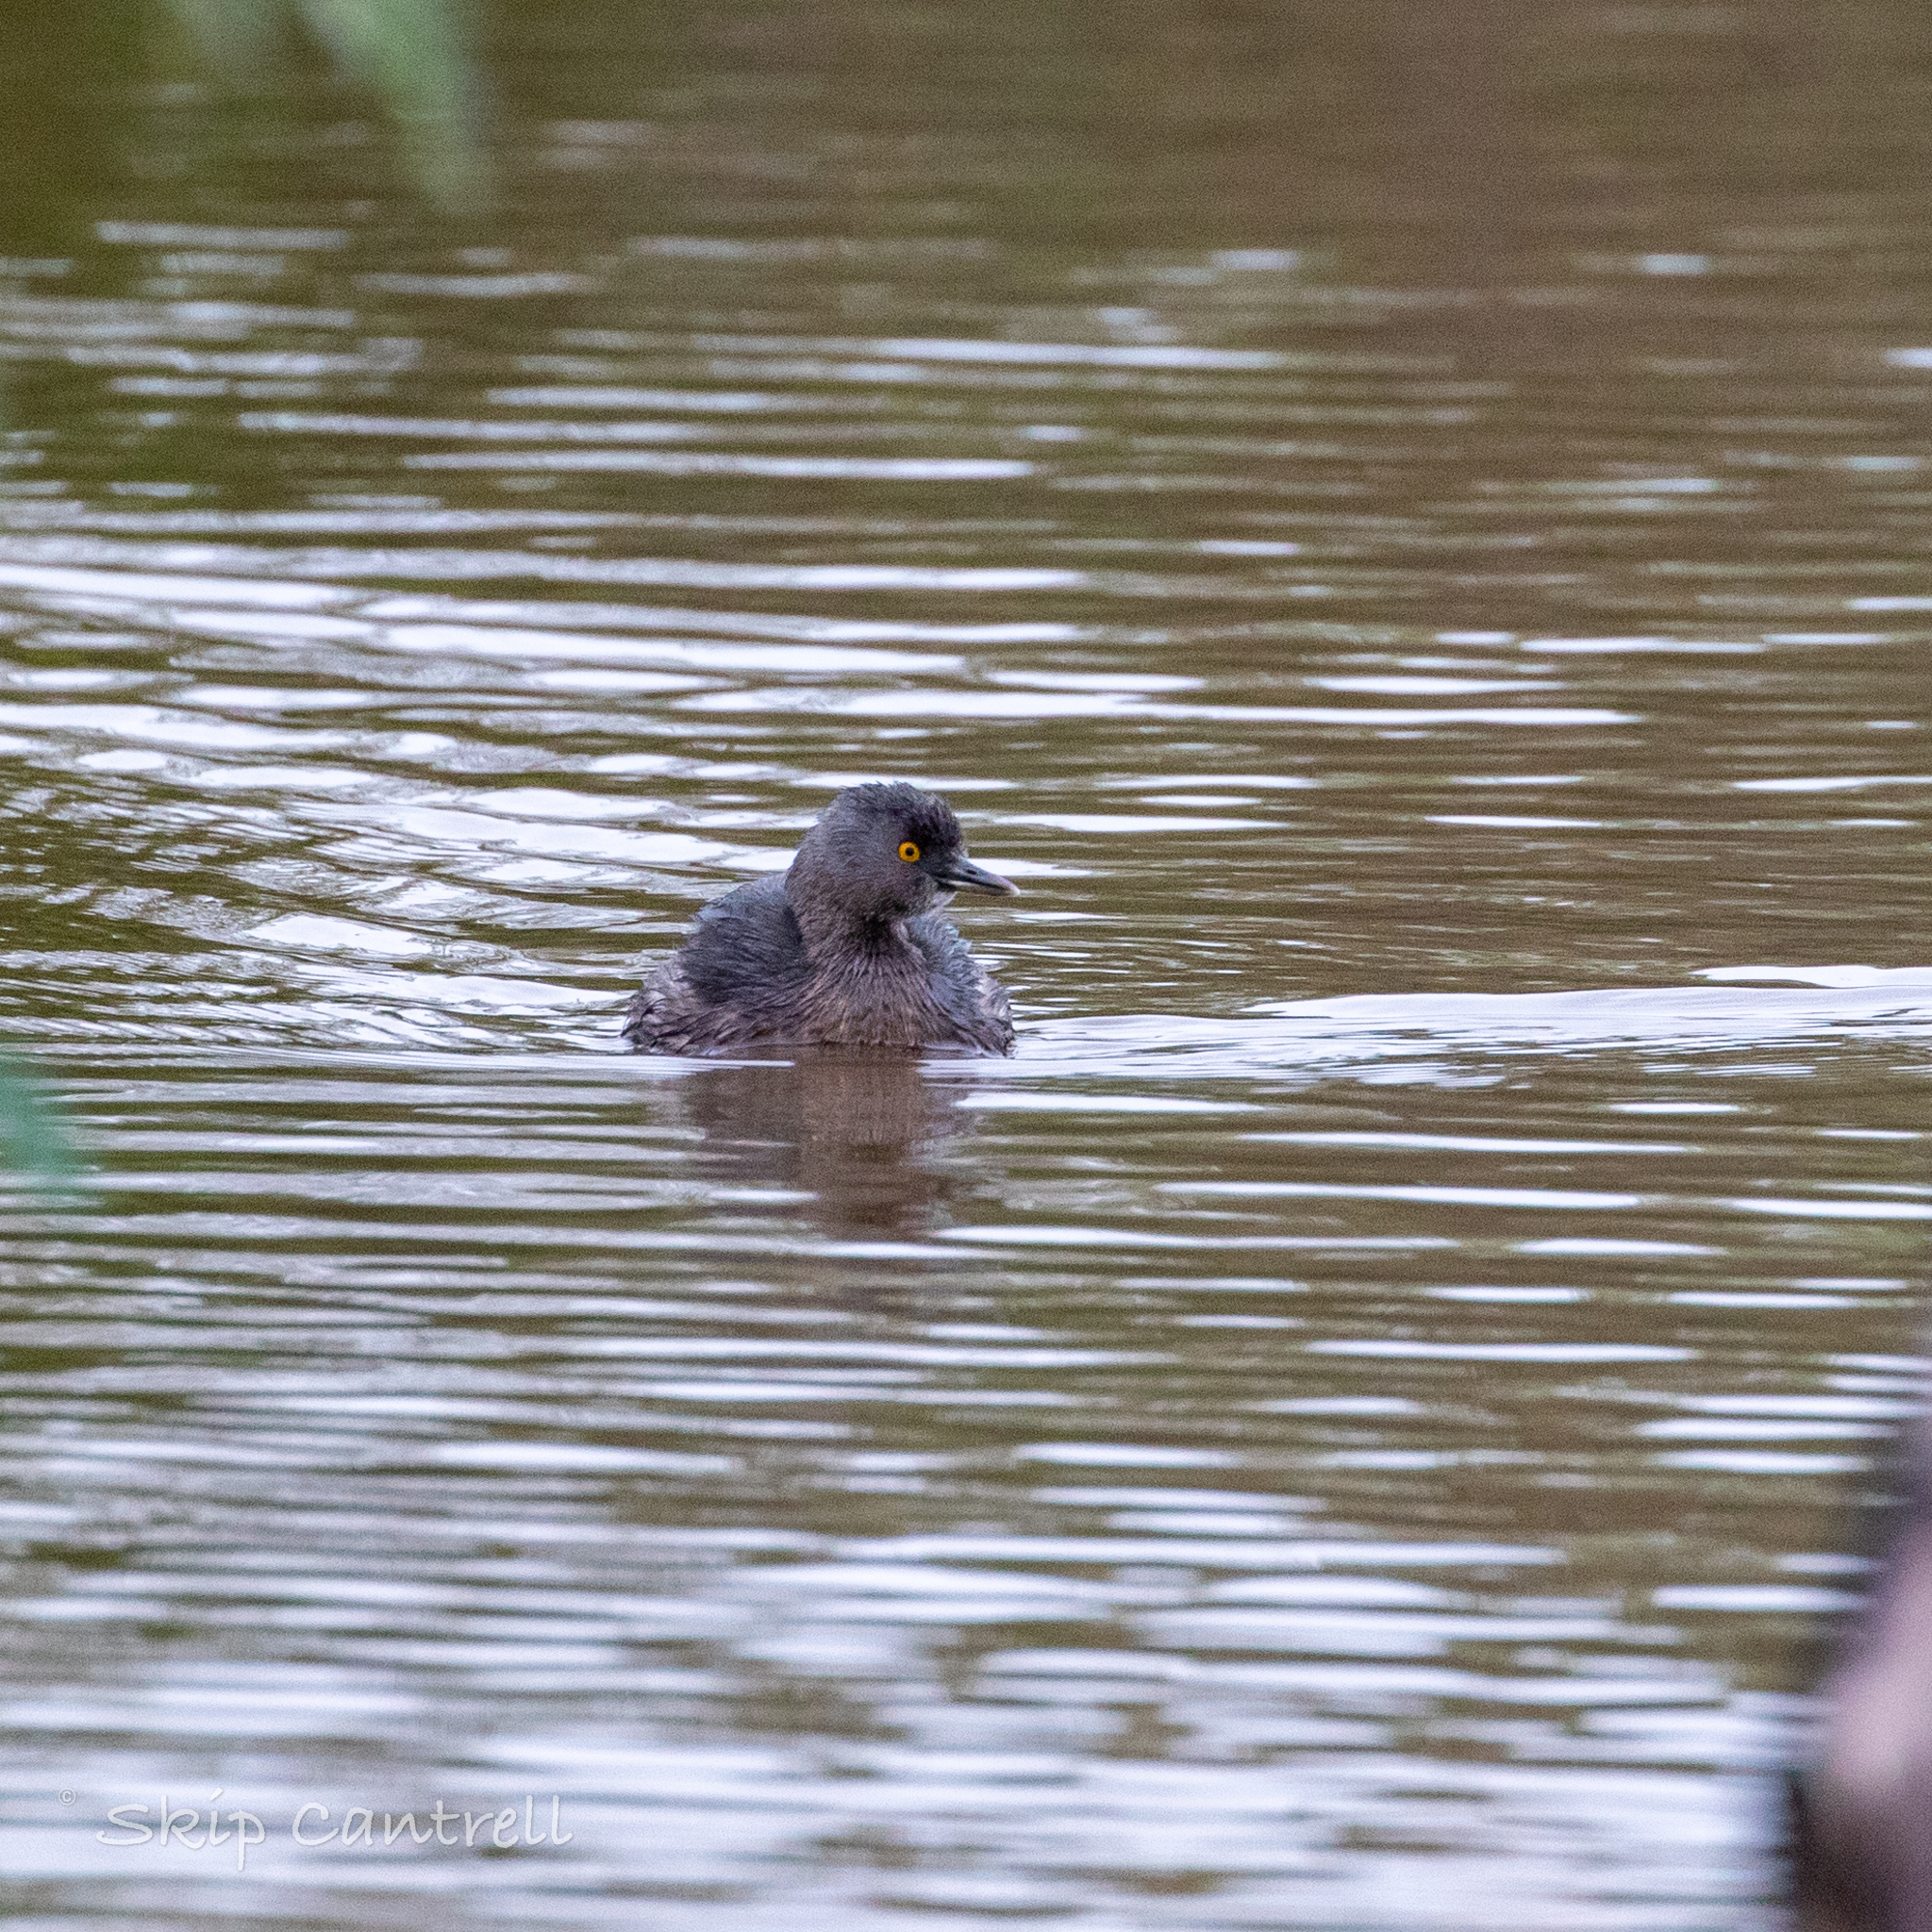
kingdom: Animalia
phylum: Chordata
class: Aves
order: Podicipediformes
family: Podicipedidae
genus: Tachybaptus
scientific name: Tachybaptus dominicus
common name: Least grebe
